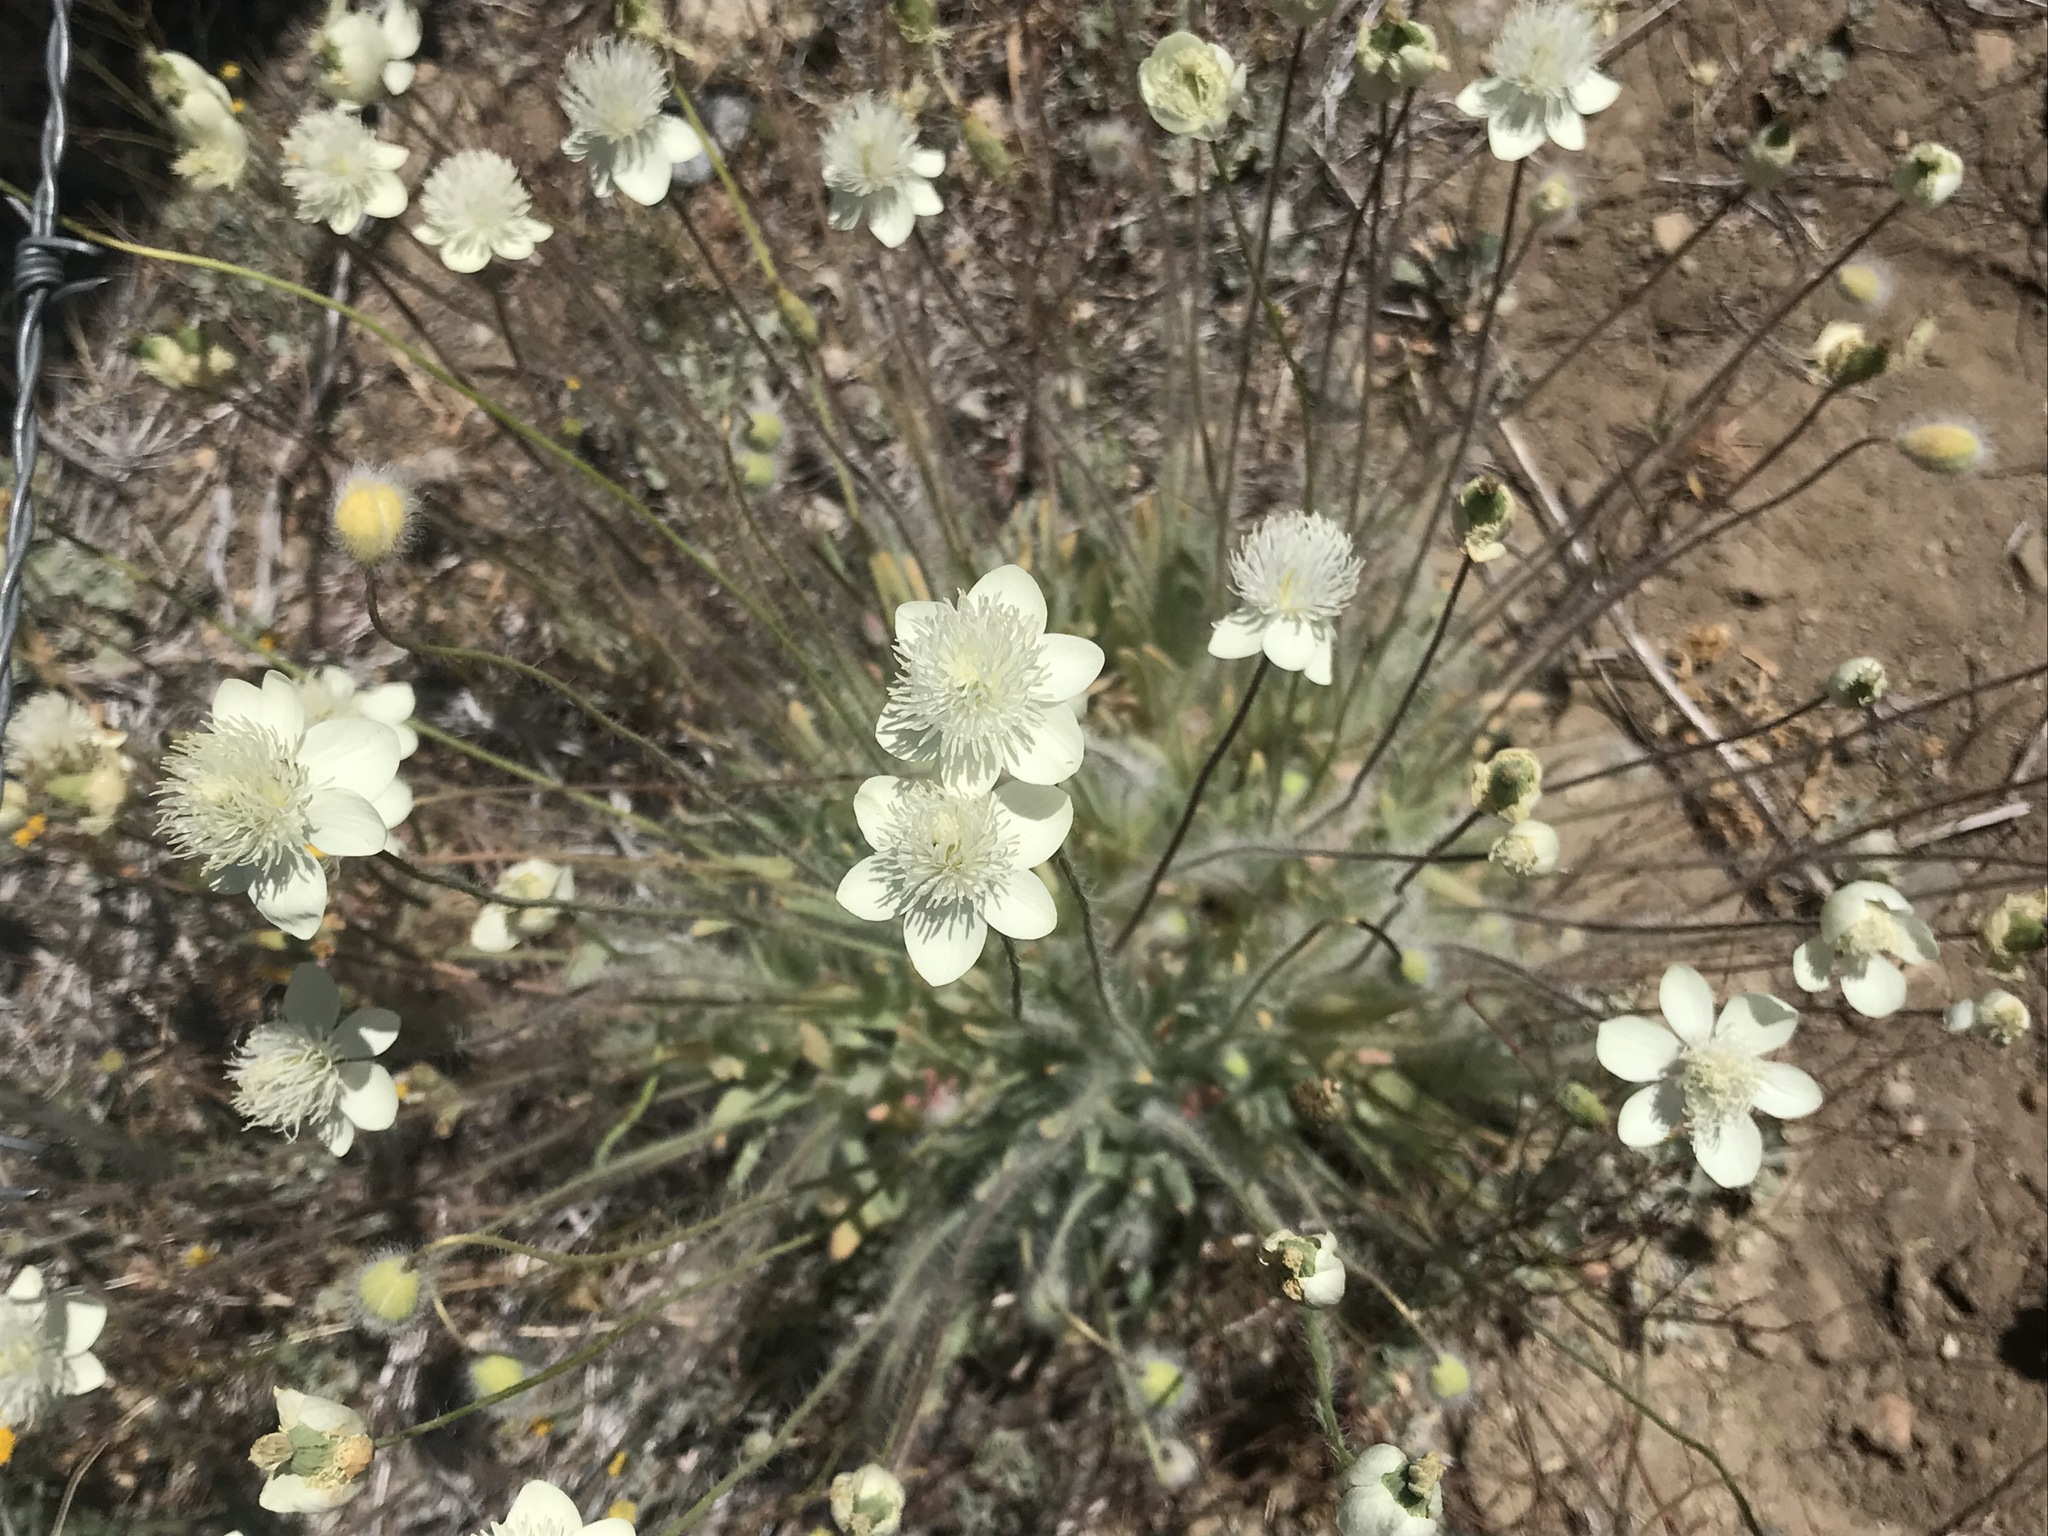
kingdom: Plantae
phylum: Tracheophyta
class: Magnoliopsida
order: Ranunculales
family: Papaveraceae
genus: Platystemon
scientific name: Platystemon californicus
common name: Cream-cups
